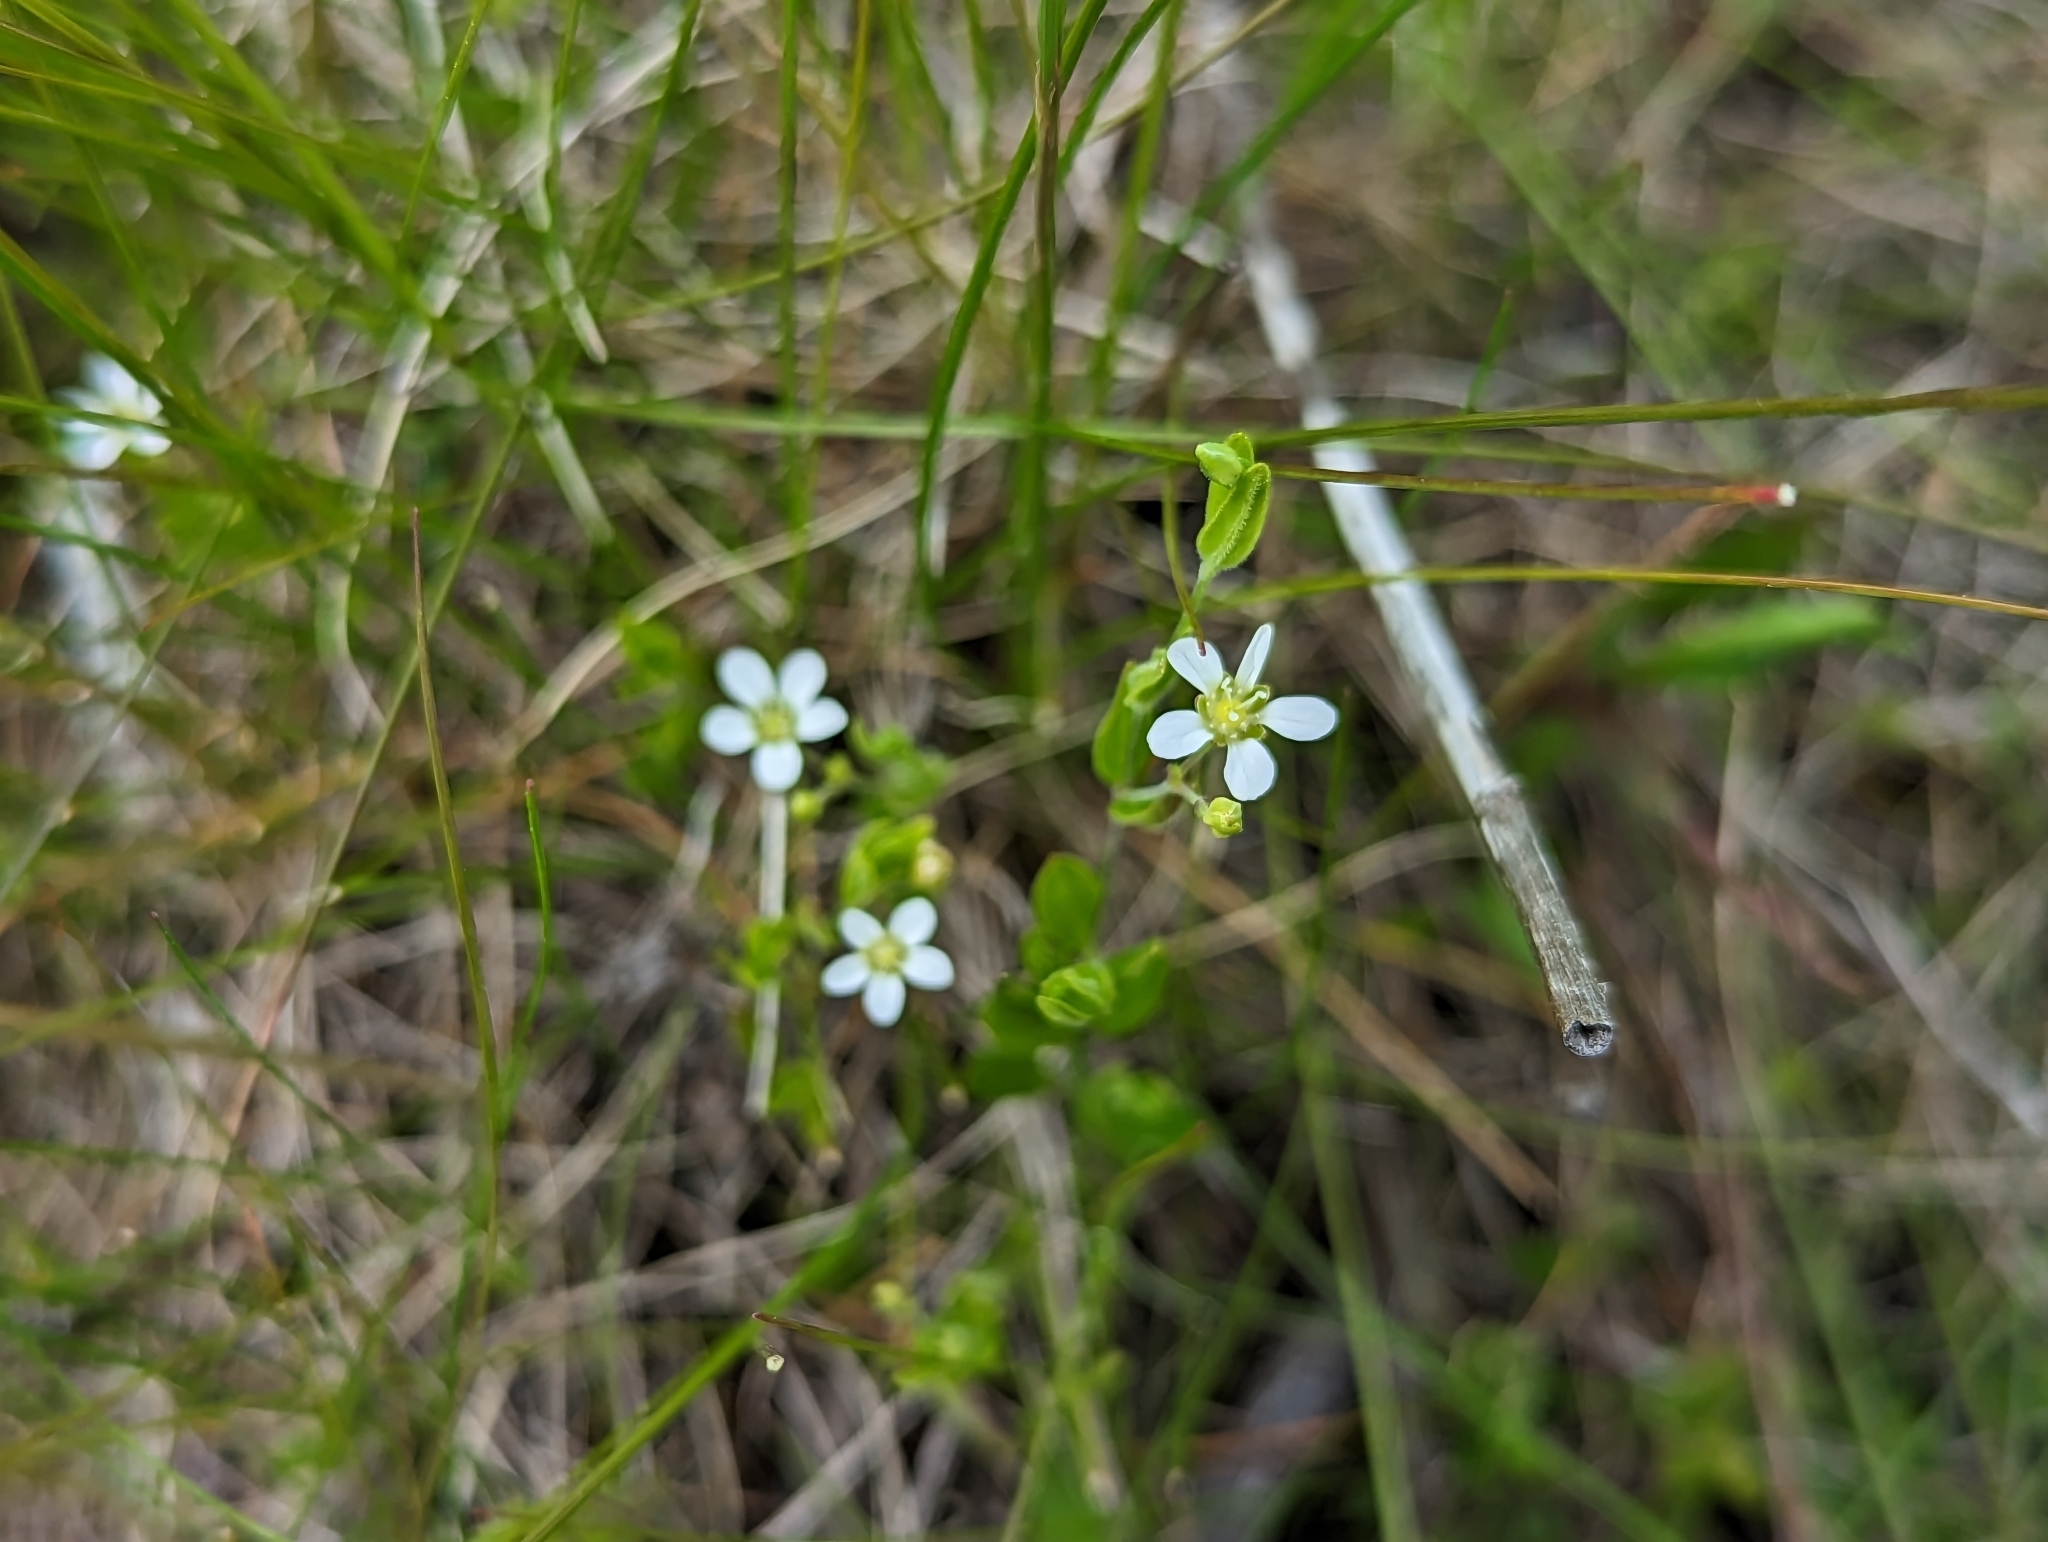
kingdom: Plantae
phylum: Tracheophyta
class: Magnoliopsida
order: Caryophyllales
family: Caryophyllaceae
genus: Moehringia
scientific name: Moehringia lateriflora
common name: Blunt-leaved sandwort
